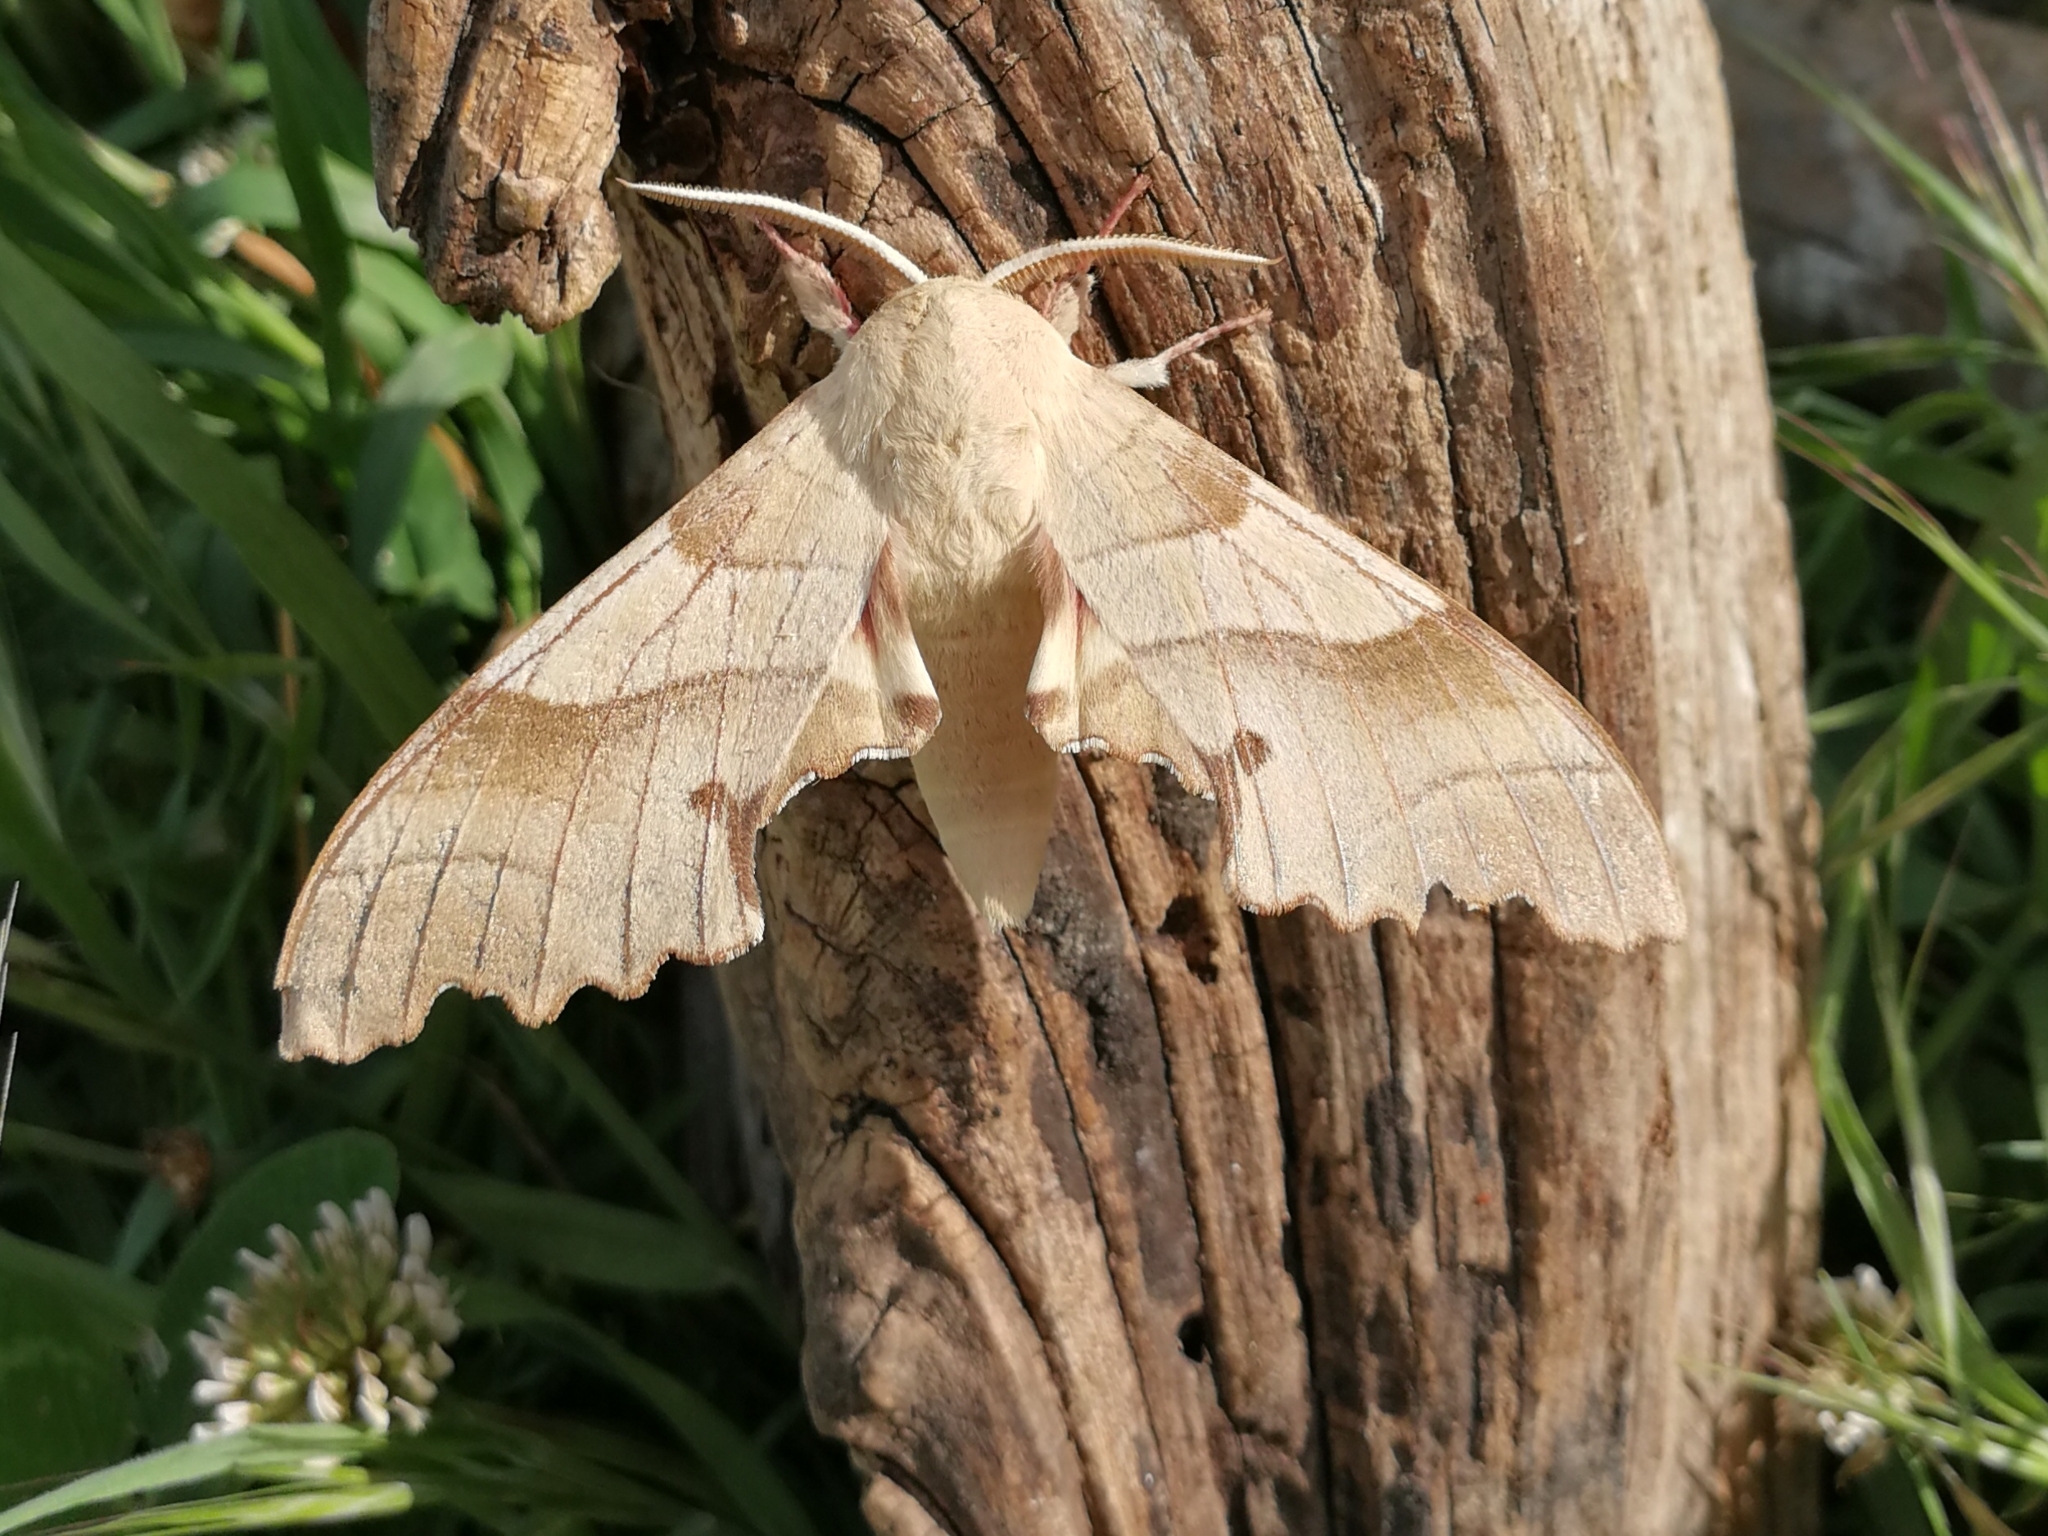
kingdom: Animalia
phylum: Arthropoda
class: Insecta
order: Lepidoptera
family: Sphingidae
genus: Marumba
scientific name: Marumba quercus
